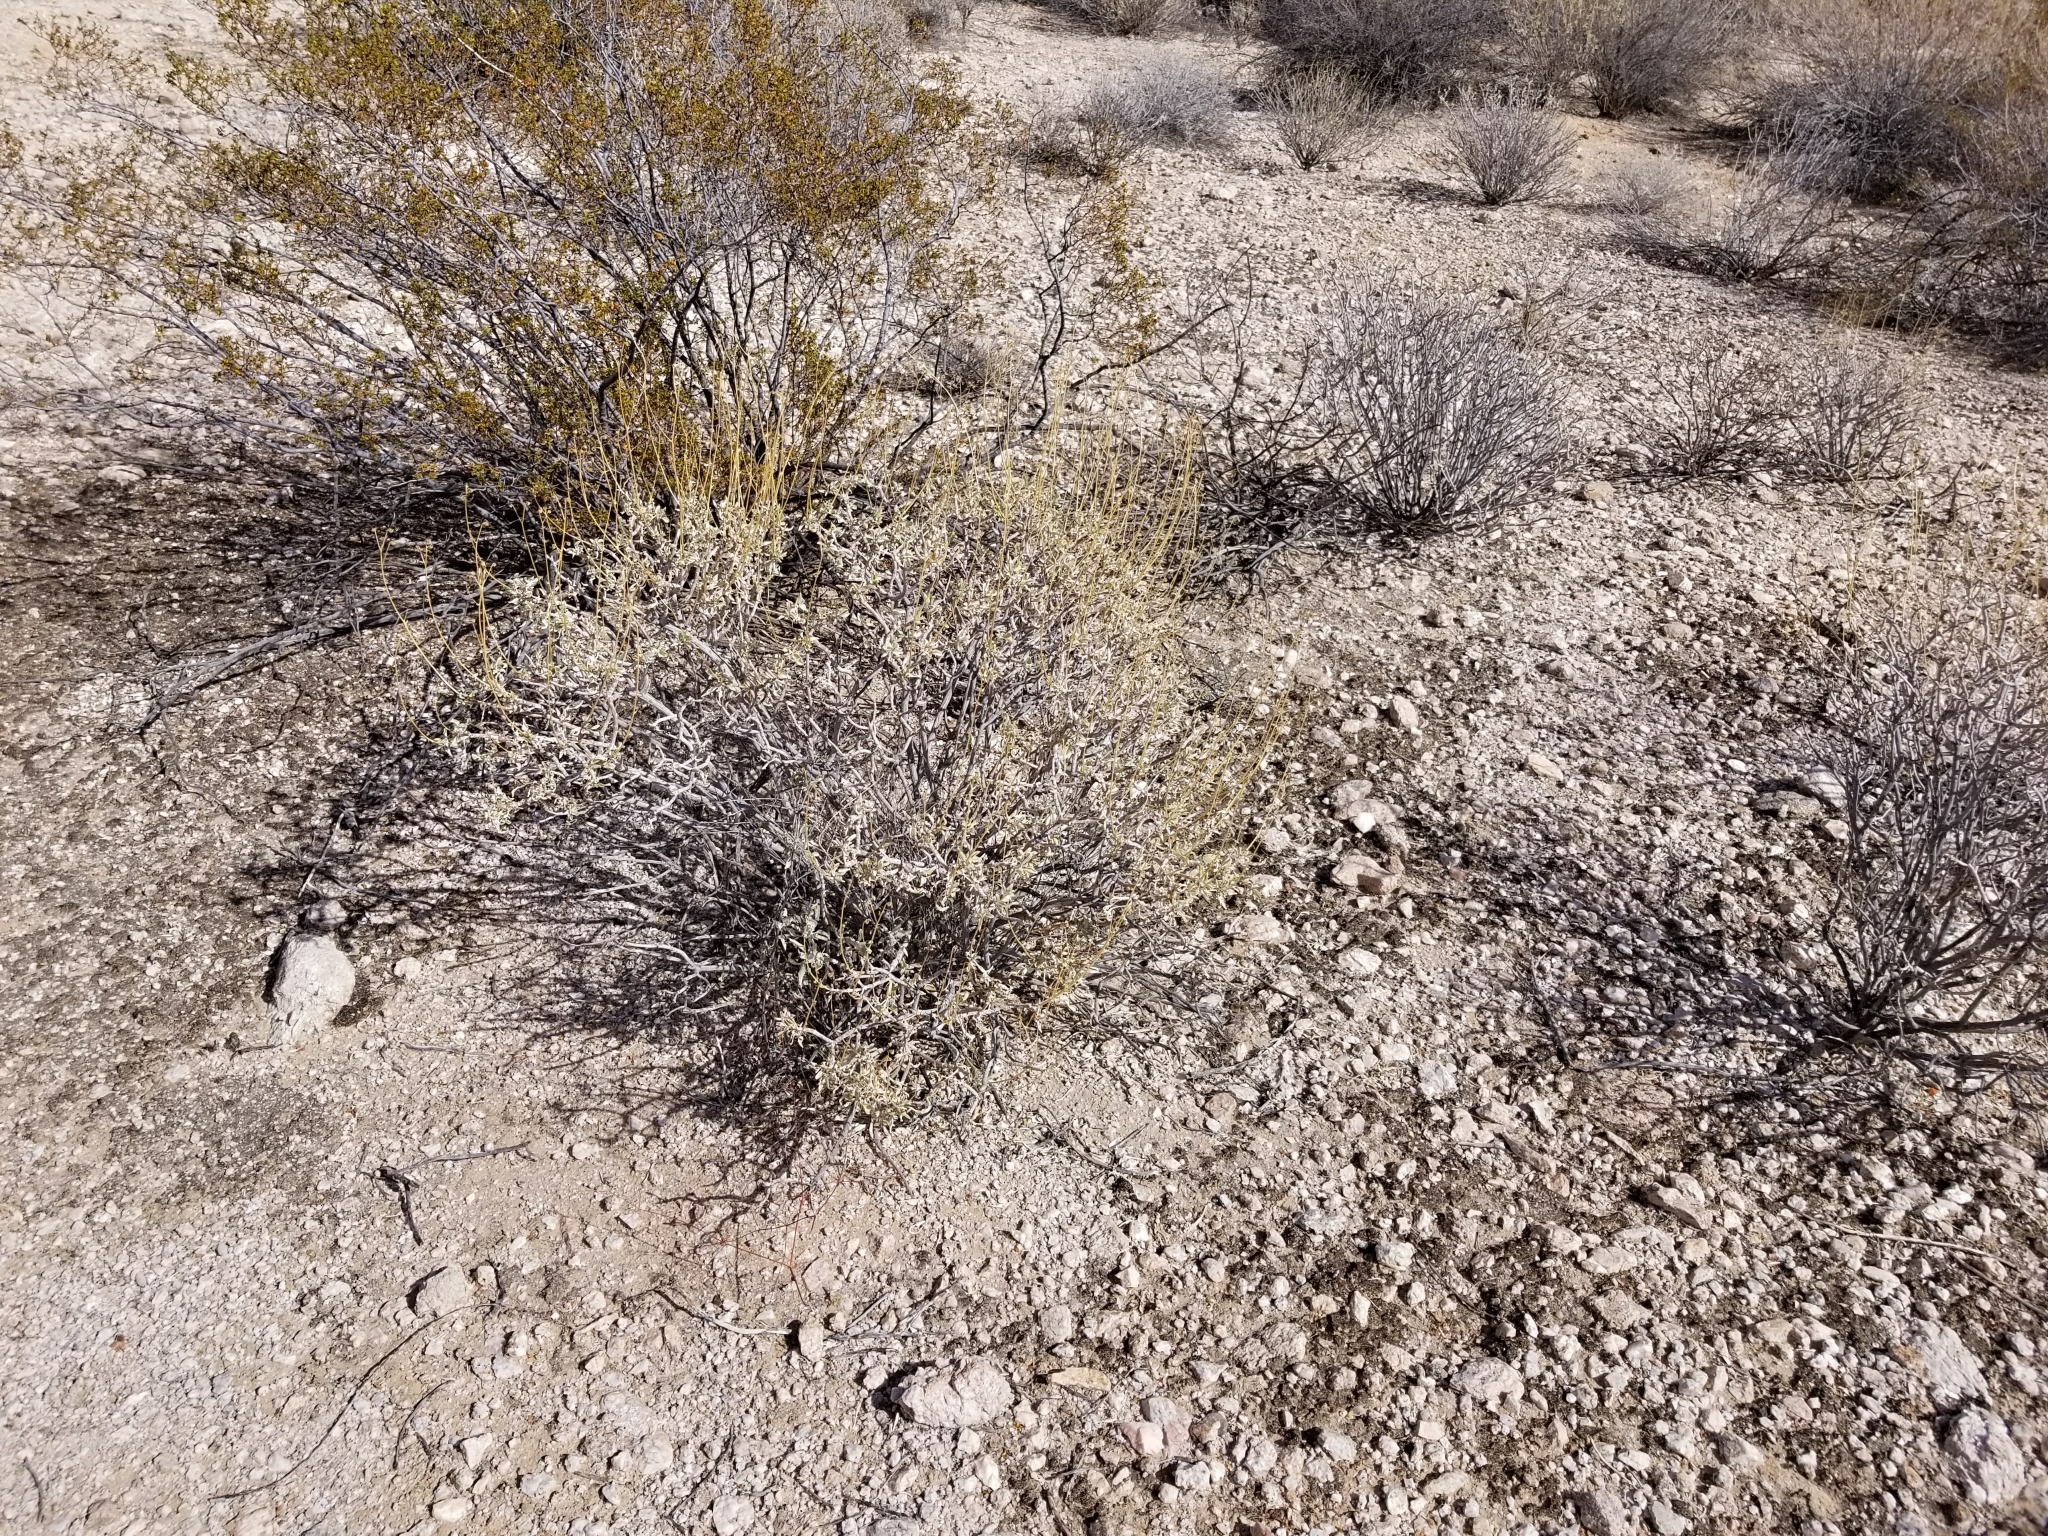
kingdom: Plantae
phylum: Tracheophyta
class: Magnoliopsida
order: Asterales
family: Asteraceae
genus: Encelia
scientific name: Encelia farinosa
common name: Brittlebush
